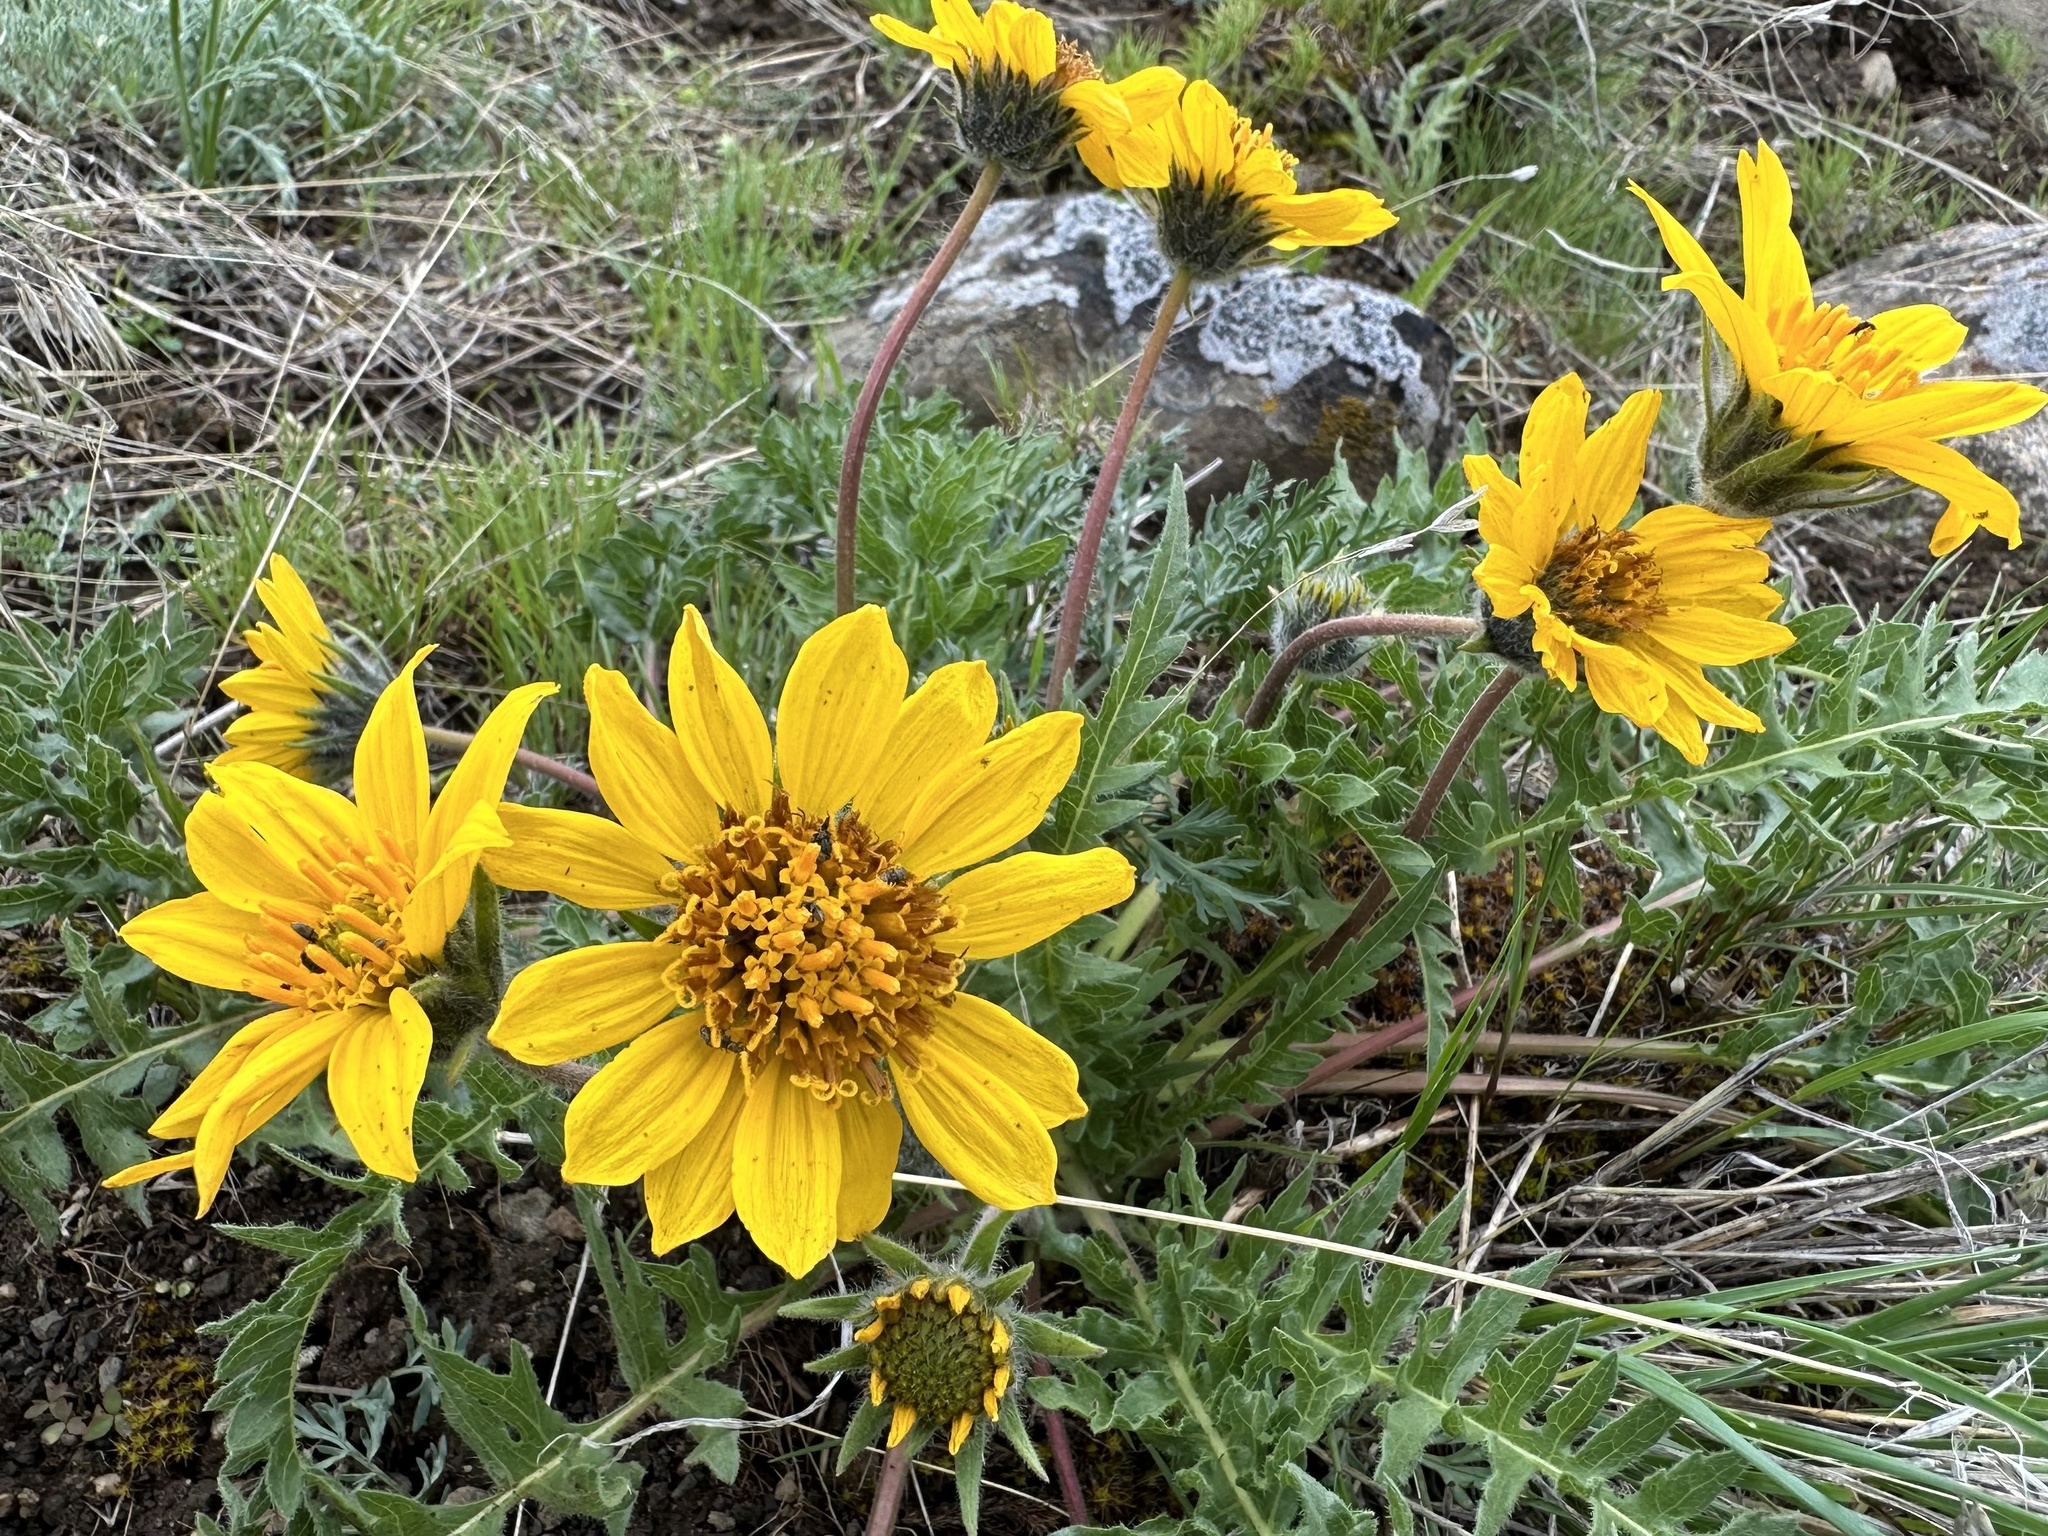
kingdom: Plantae
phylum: Tracheophyta
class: Magnoliopsida
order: Asterales
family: Asteraceae
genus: Balsamorhiza
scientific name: Balsamorhiza hookeri
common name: Hooker's balsamroot
